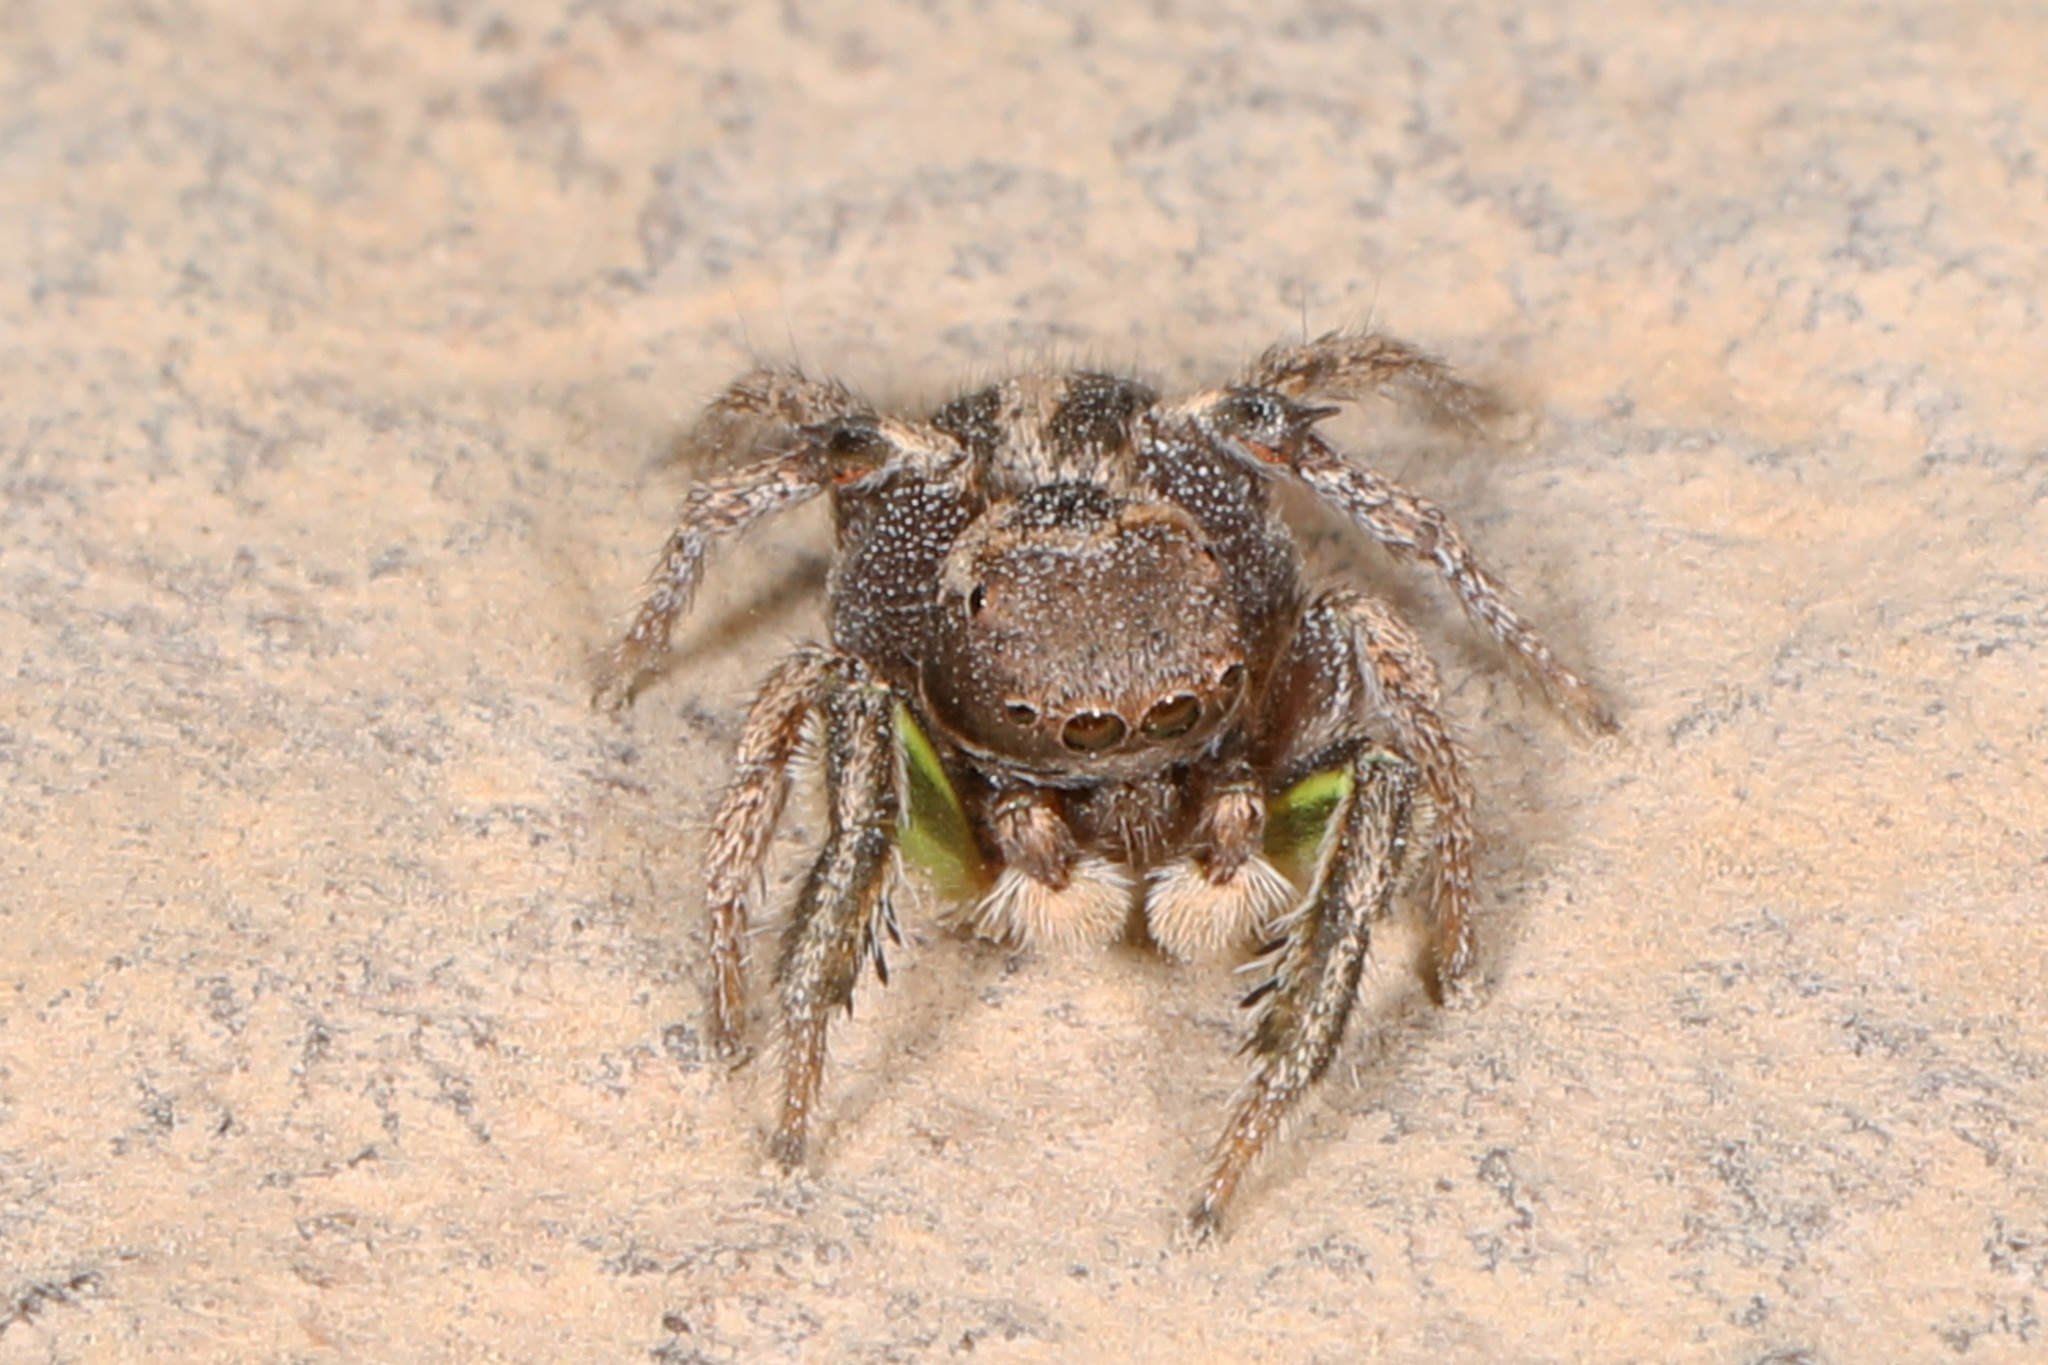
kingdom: Animalia
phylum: Arthropoda
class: Arachnida
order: Araneae
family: Salticidae
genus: Habronattus
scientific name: Habronattus calcaratus
